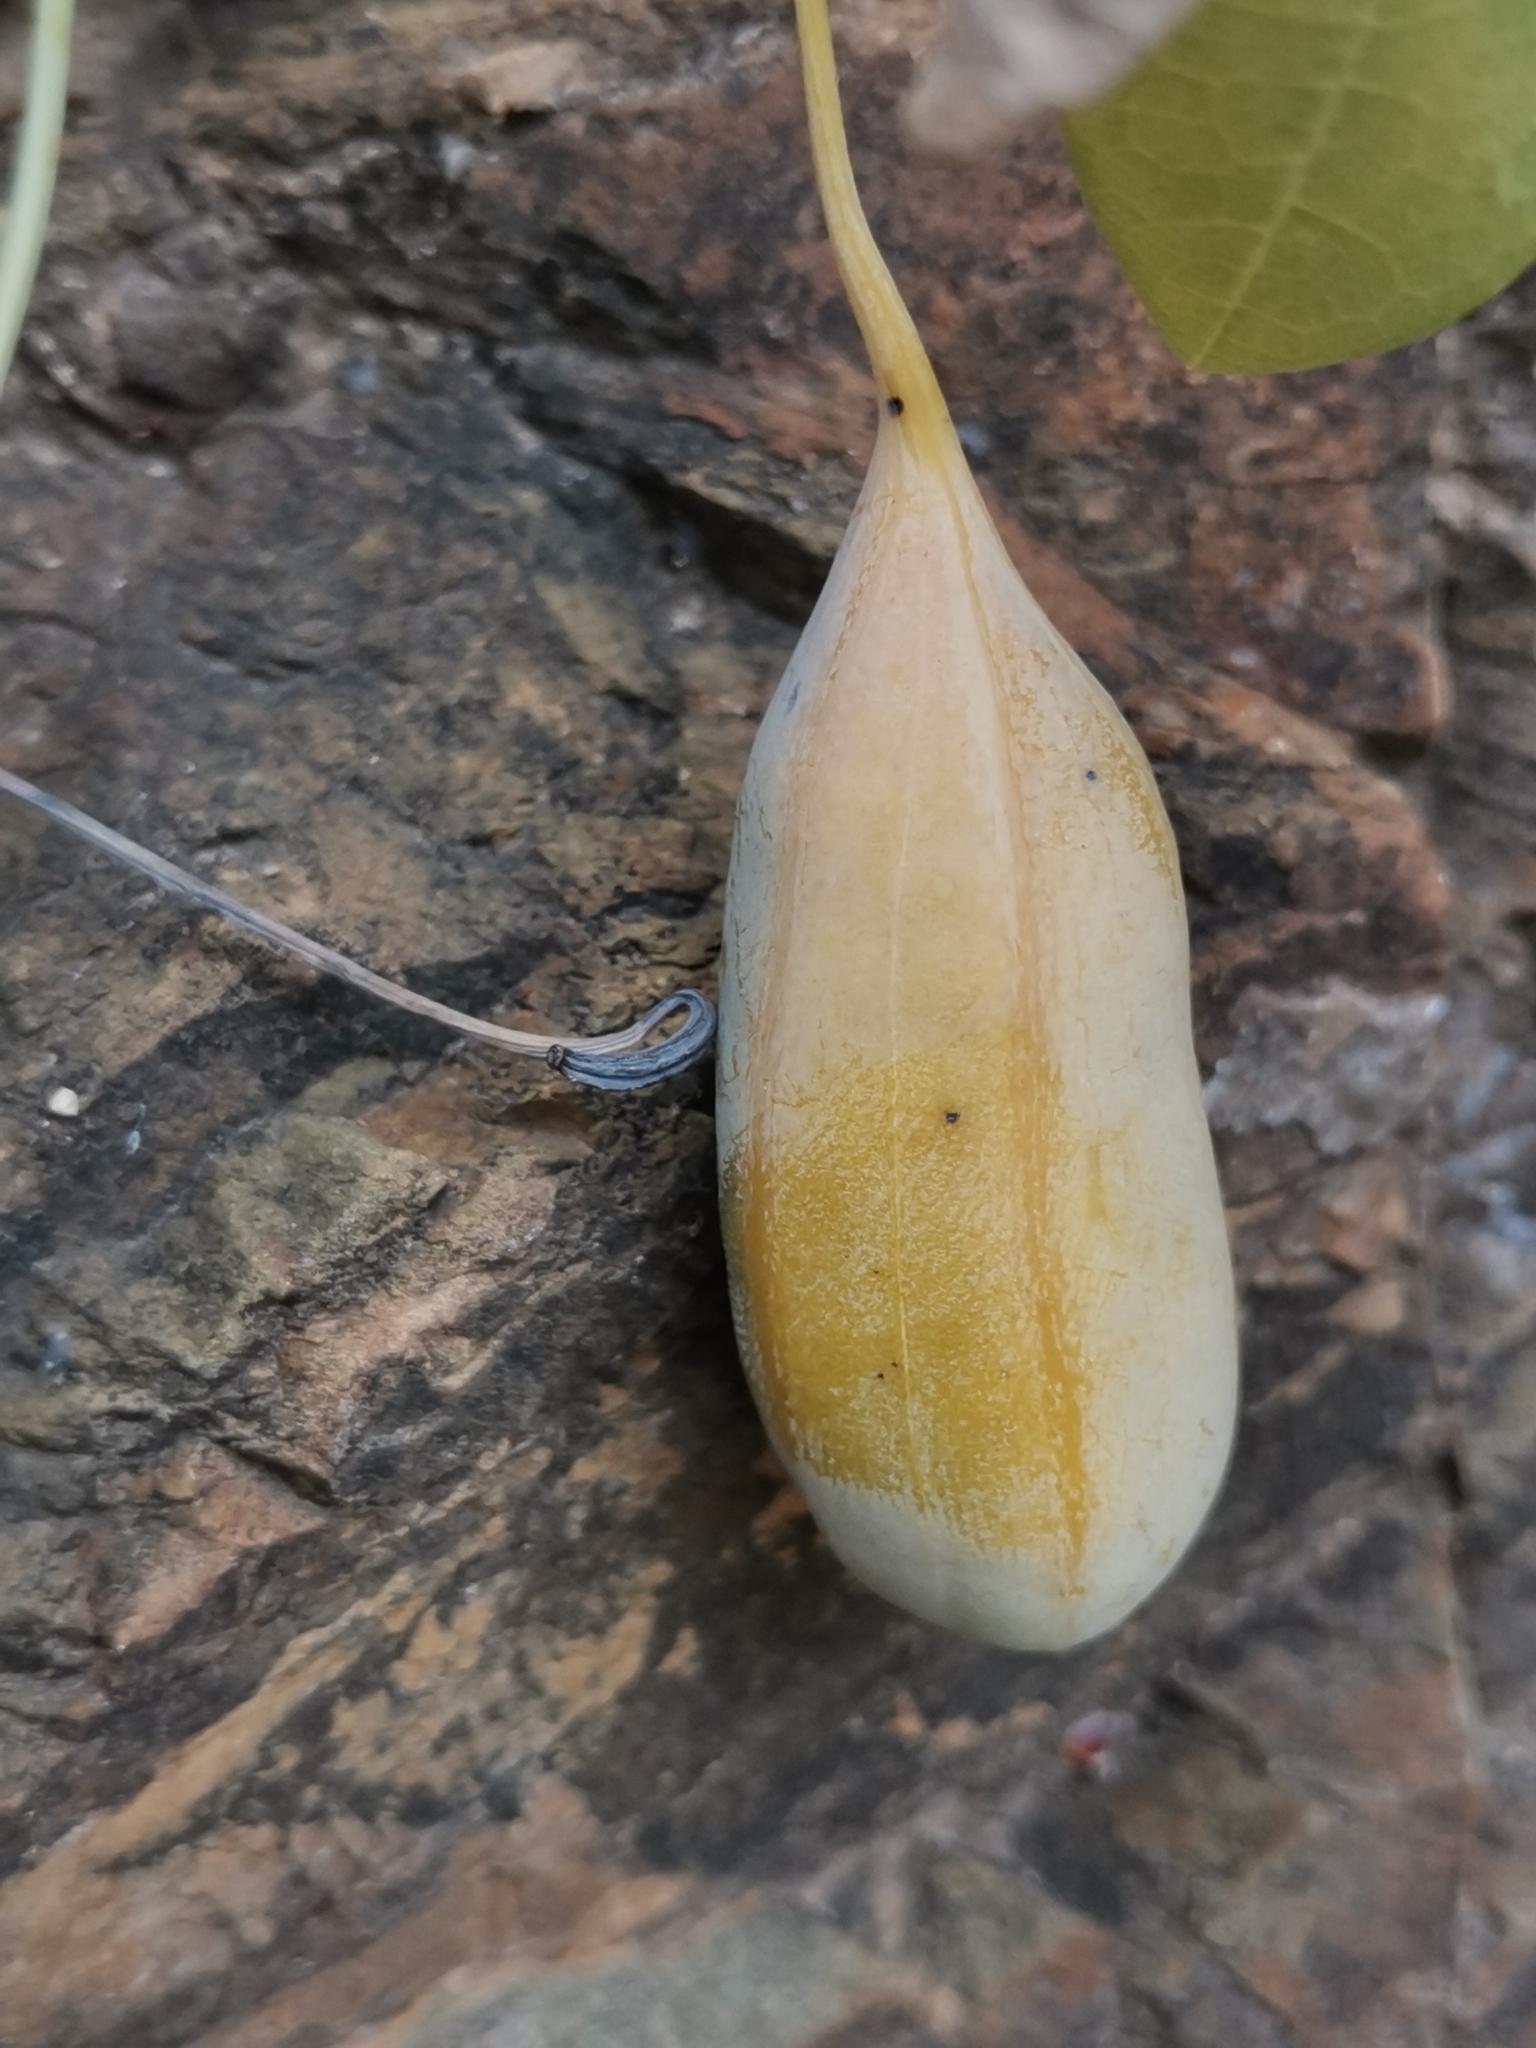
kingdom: Plantae
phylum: Tracheophyta
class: Magnoliopsida
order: Piperales
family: Aristolochiaceae
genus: Aristolochia
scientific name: Aristolochia baetica
